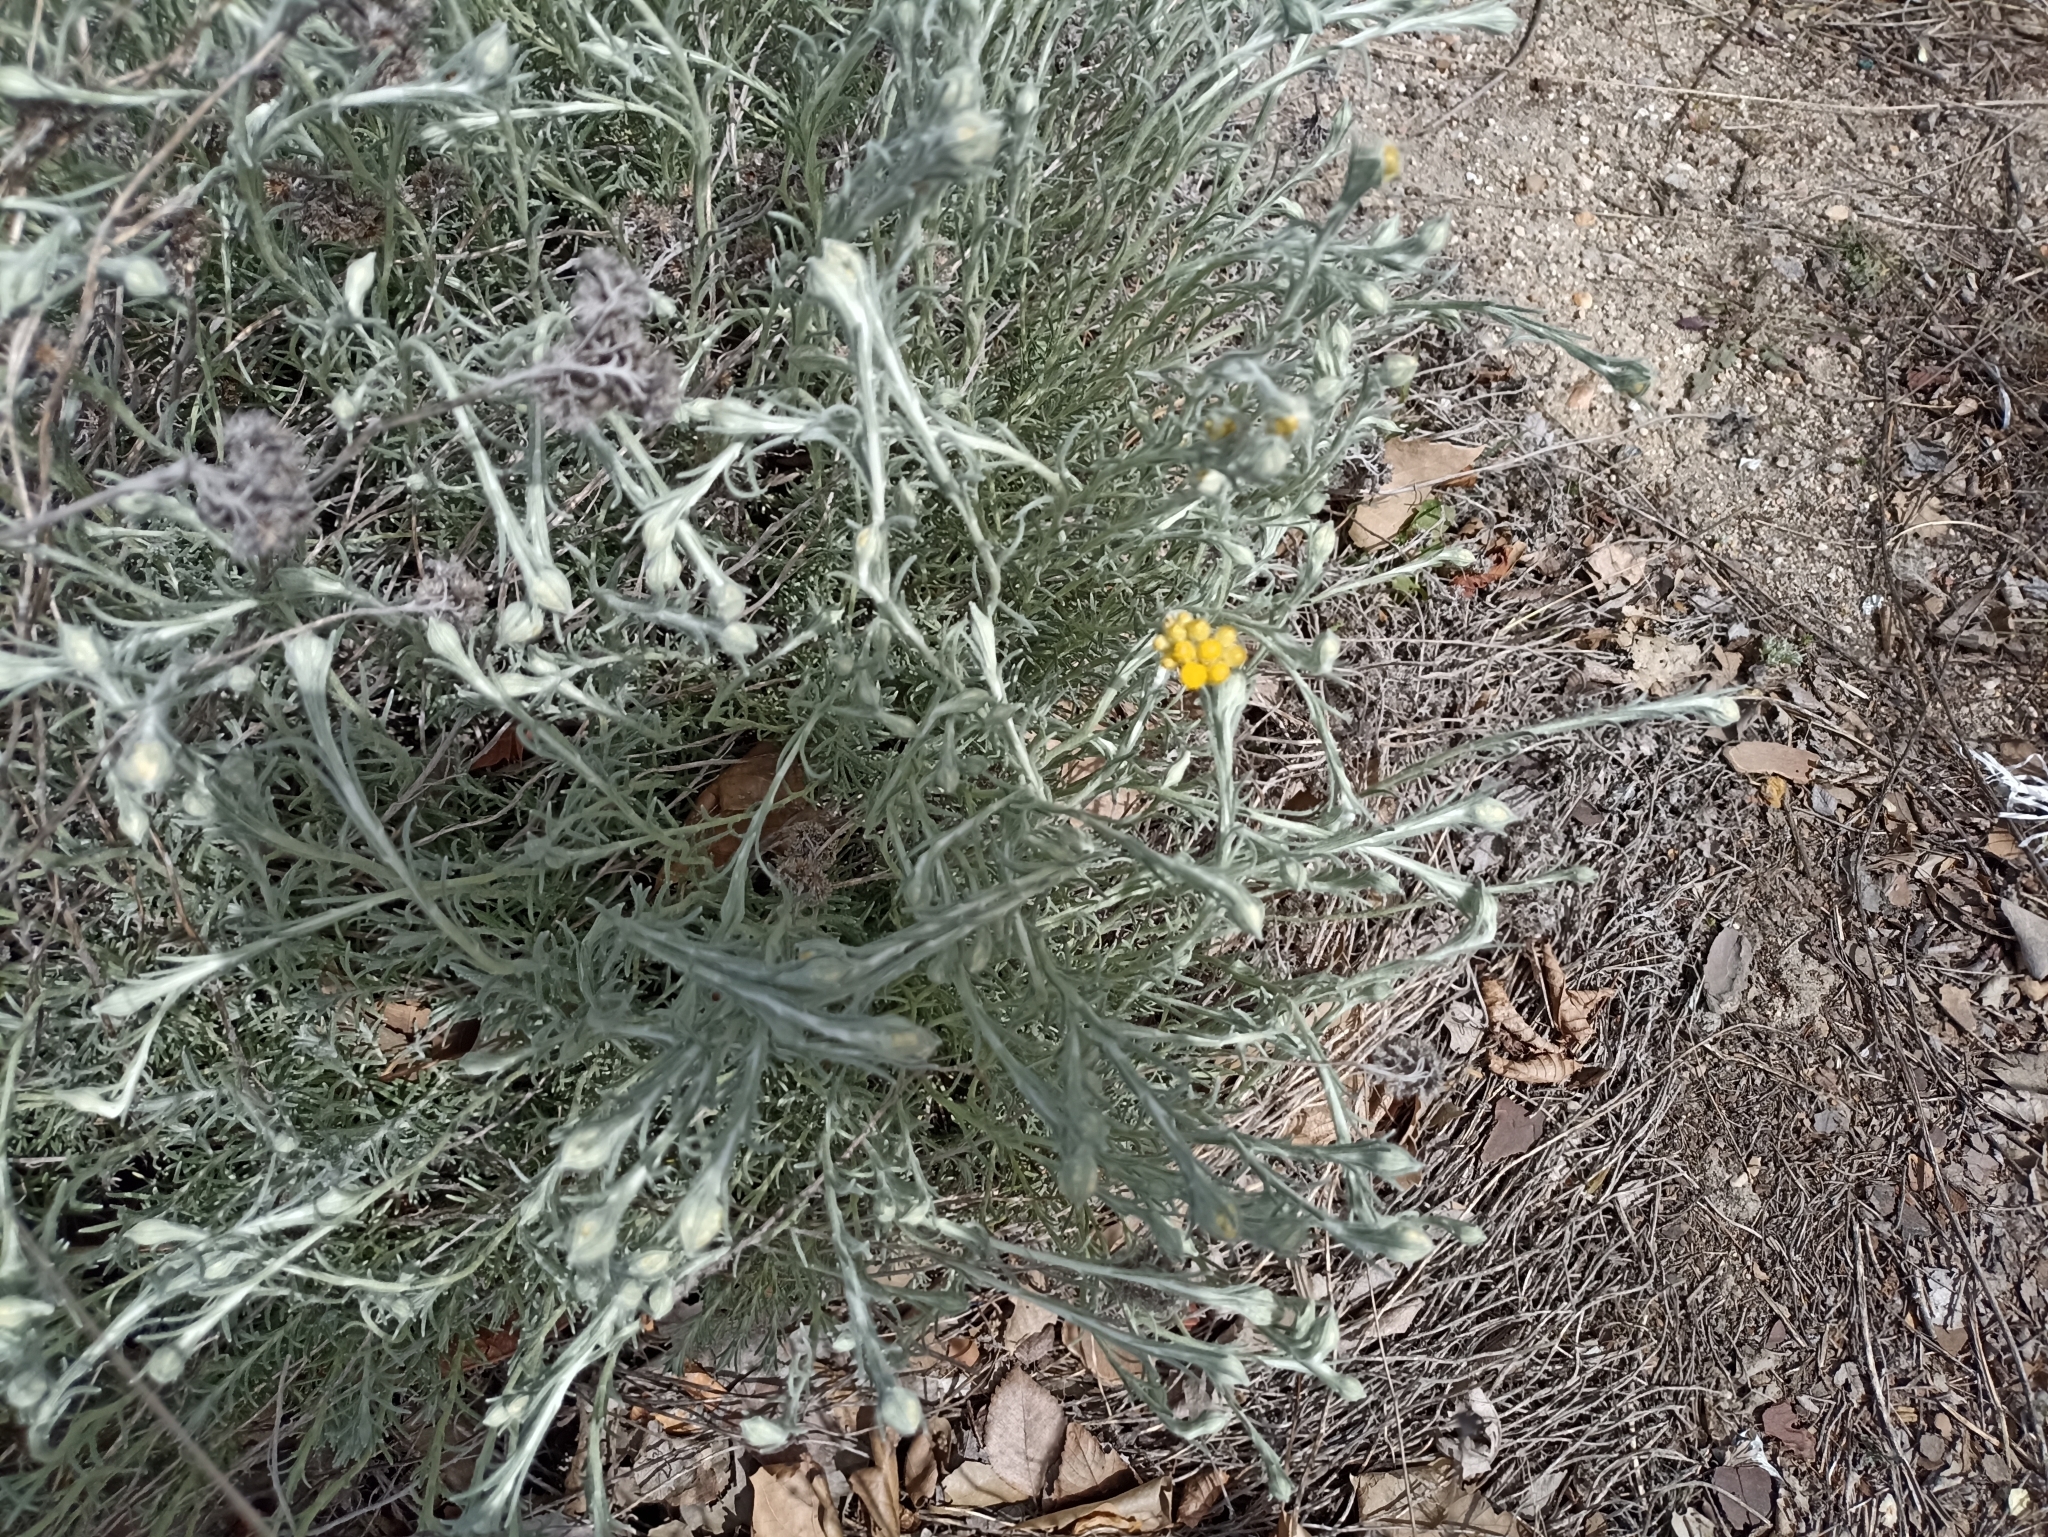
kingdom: Plantae
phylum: Tracheophyta
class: Magnoliopsida
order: Asterales
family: Asteraceae
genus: Helichrysum
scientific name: Helichrysum stoechas
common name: Goldilocks
